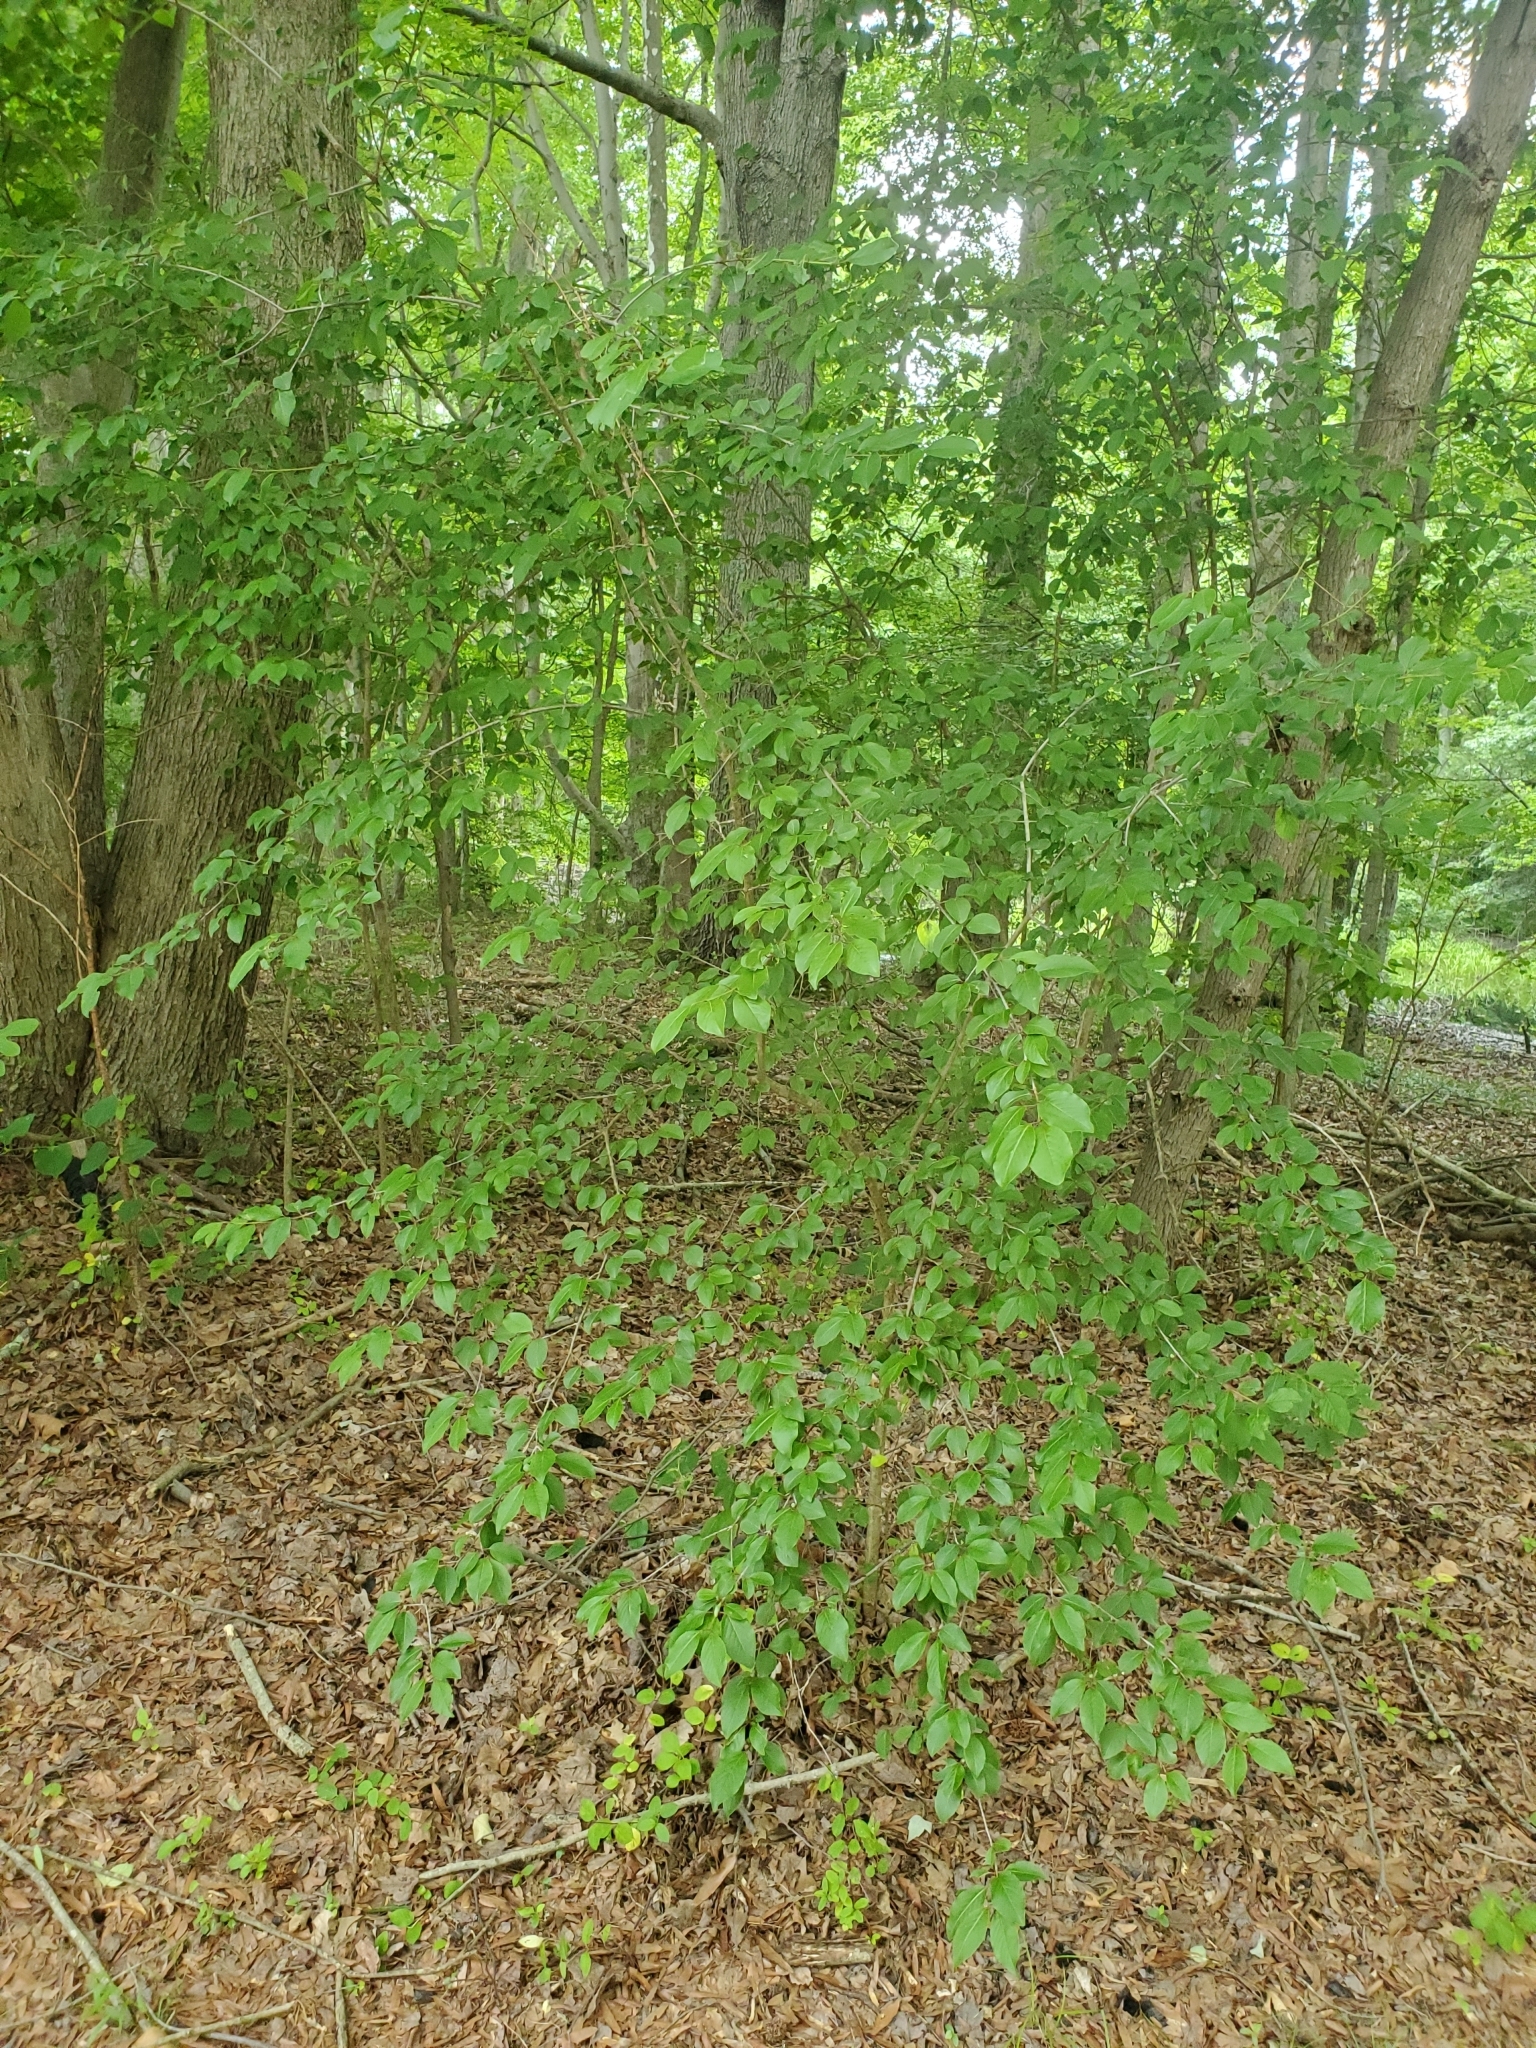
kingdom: Plantae
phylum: Tracheophyta
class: Magnoliopsida
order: Dipsacales
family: Viburnaceae
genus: Viburnum
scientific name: Viburnum prunifolium
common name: Black haw
